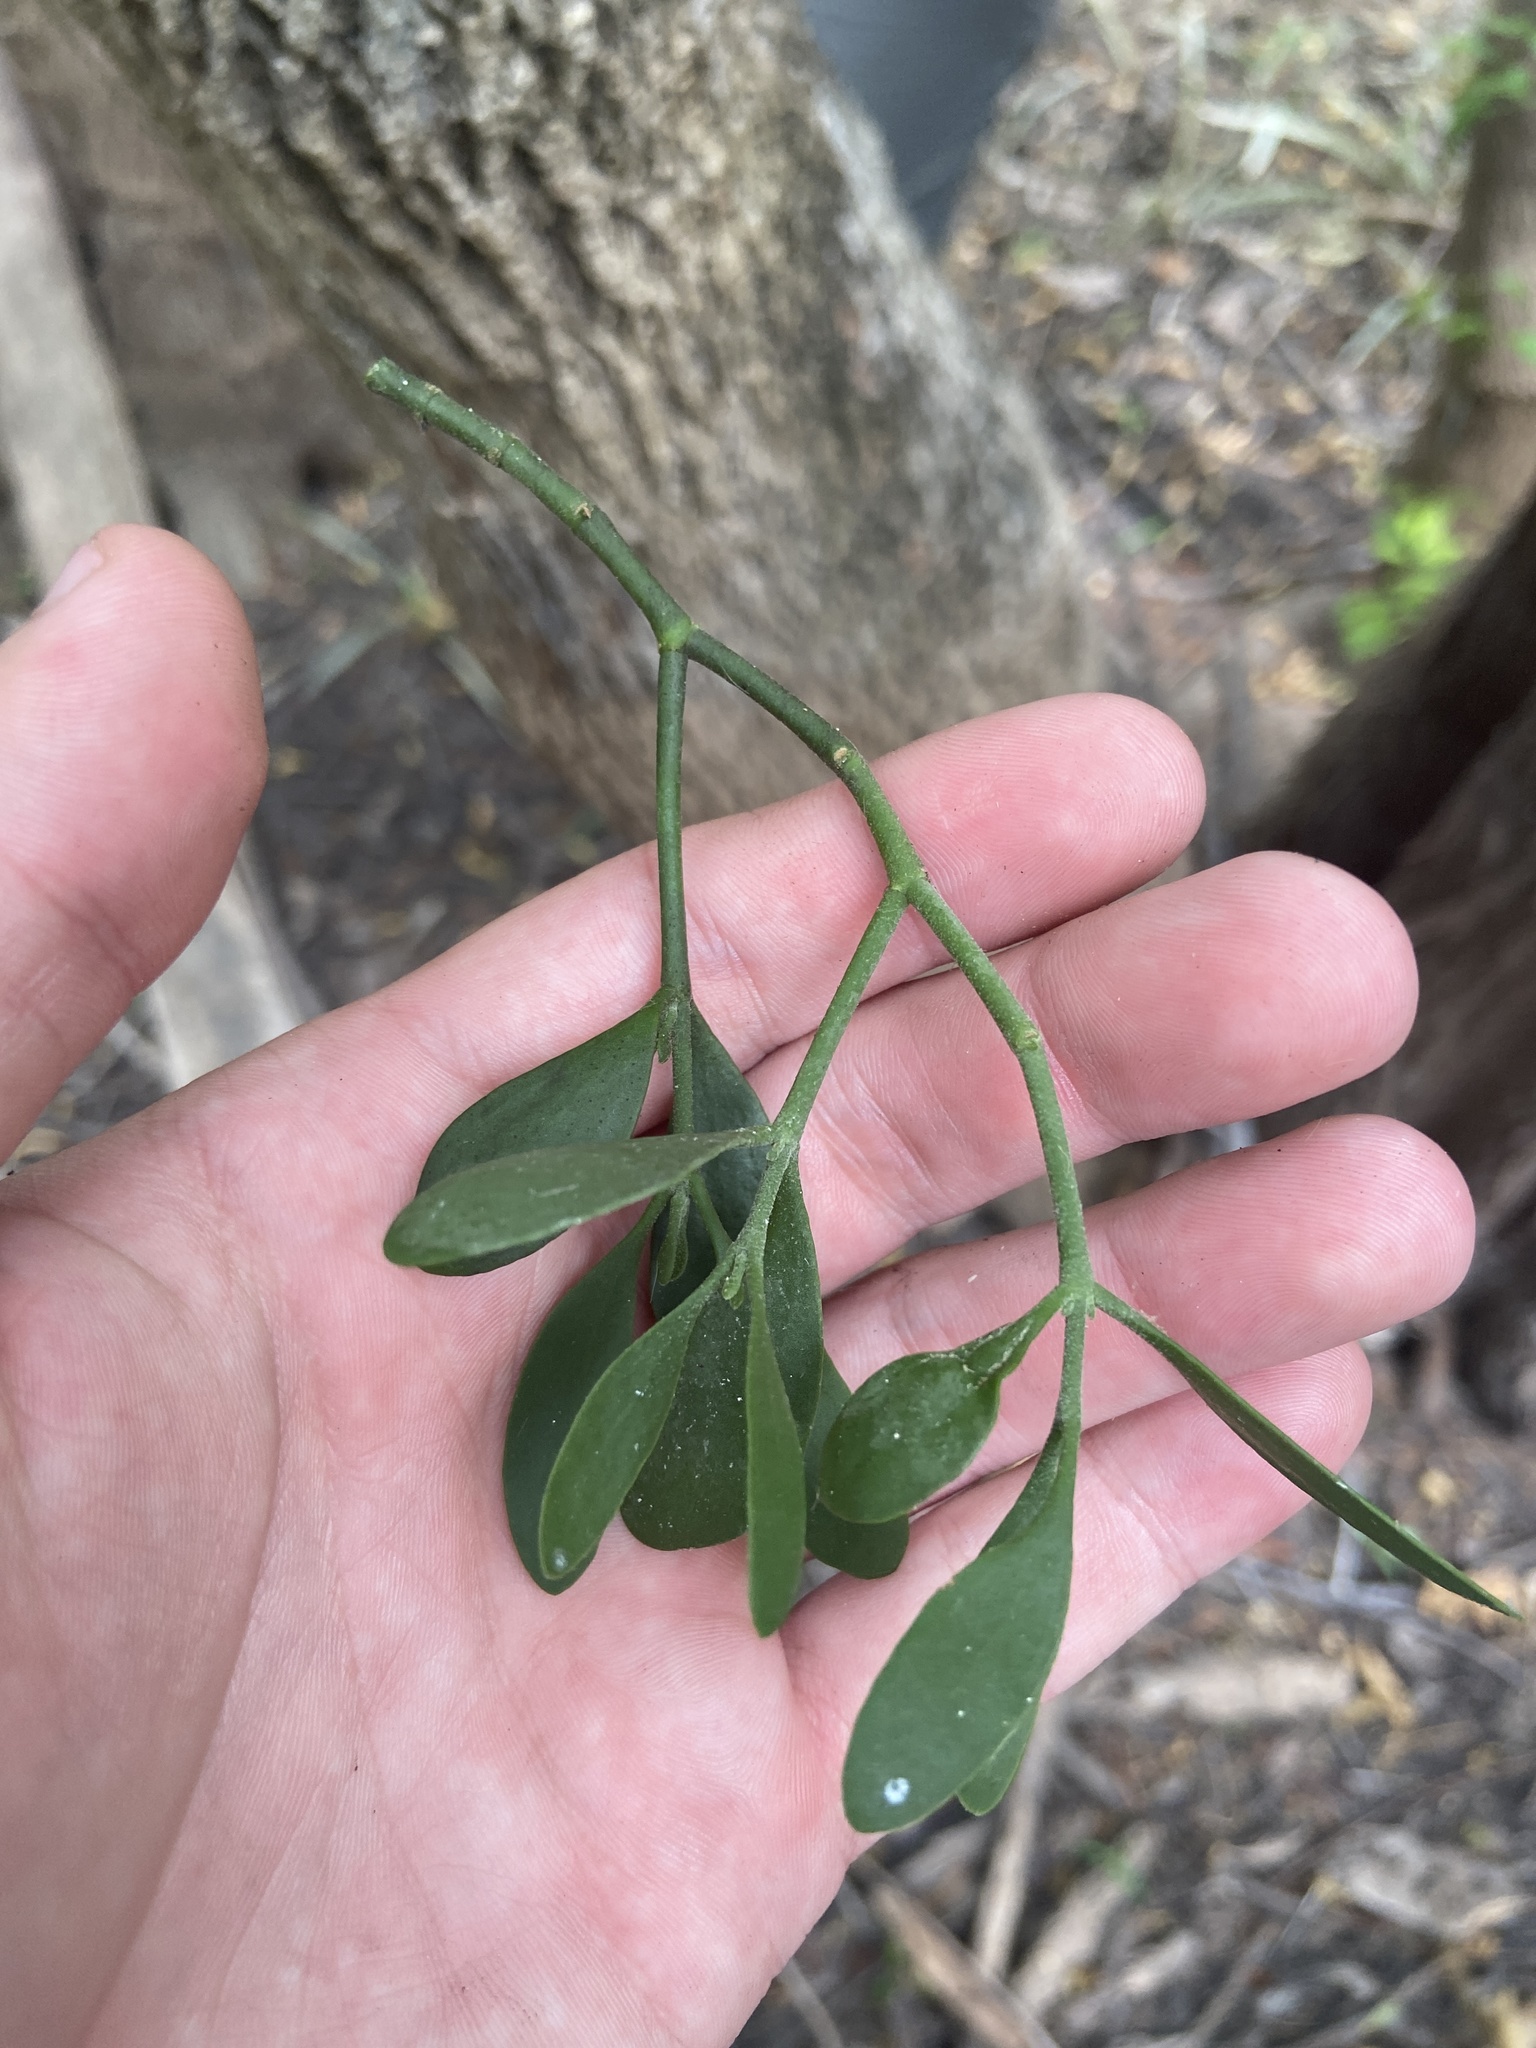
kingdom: Plantae
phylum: Tracheophyta
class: Magnoliopsida
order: Santalales
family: Viscaceae
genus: Phoradendron
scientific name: Phoradendron leucarpum
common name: Pacific mistletoe
